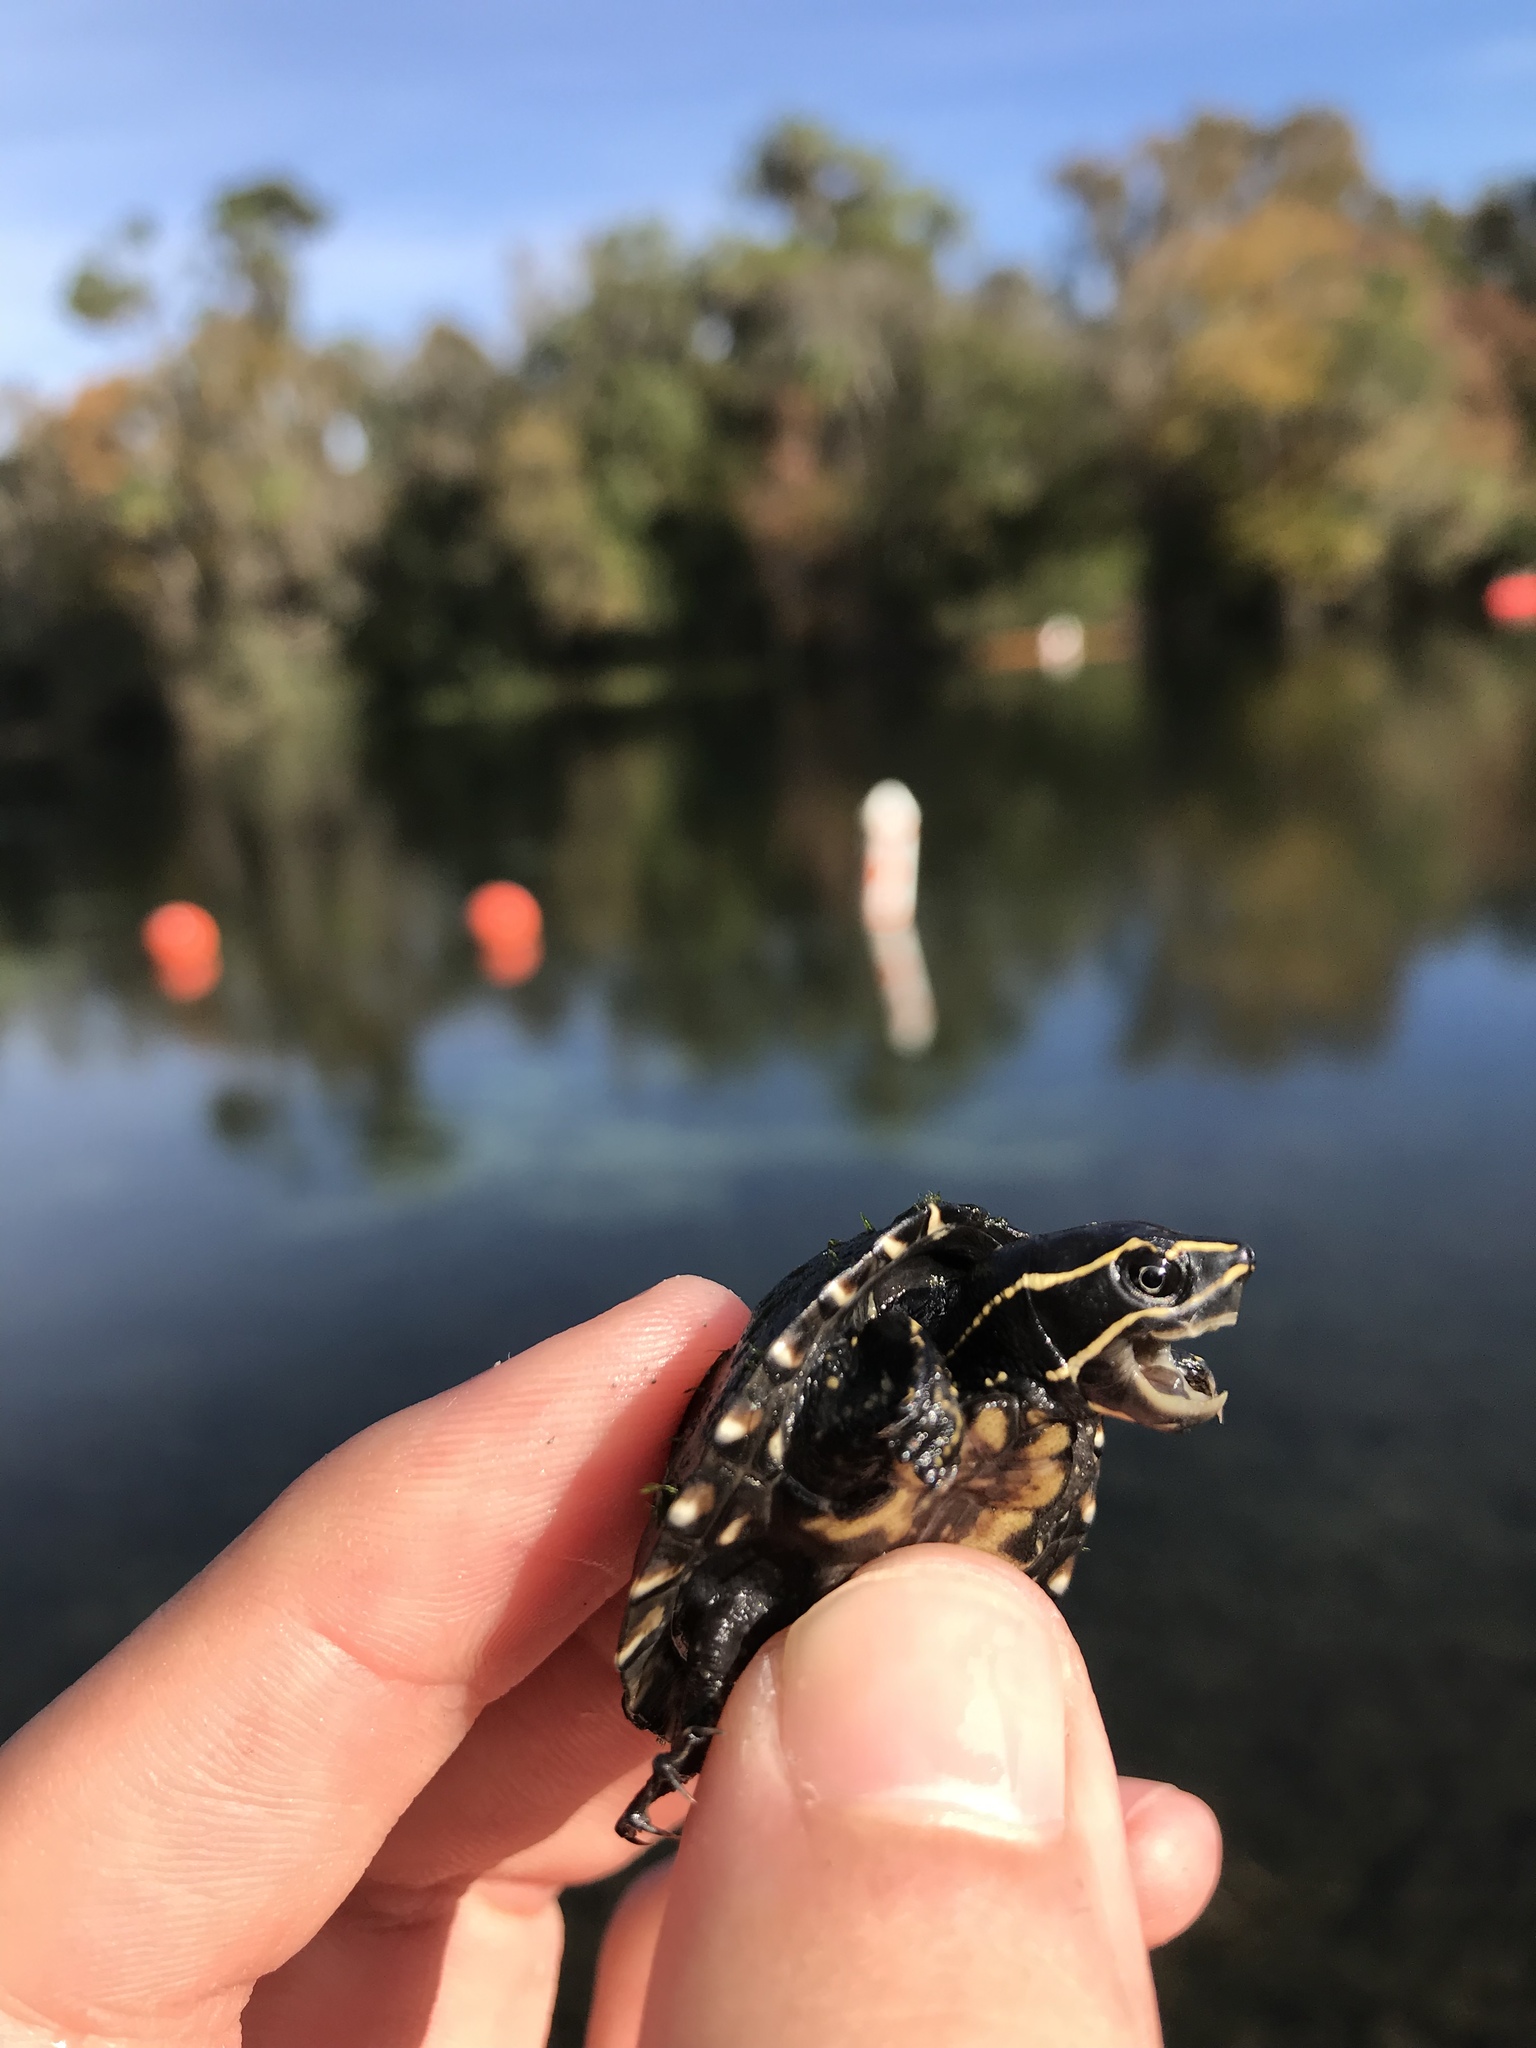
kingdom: Animalia
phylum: Chordata
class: Testudines
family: Kinosternidae
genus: Sternotherus
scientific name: Sternotherus odoratus
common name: Common musk turtle
